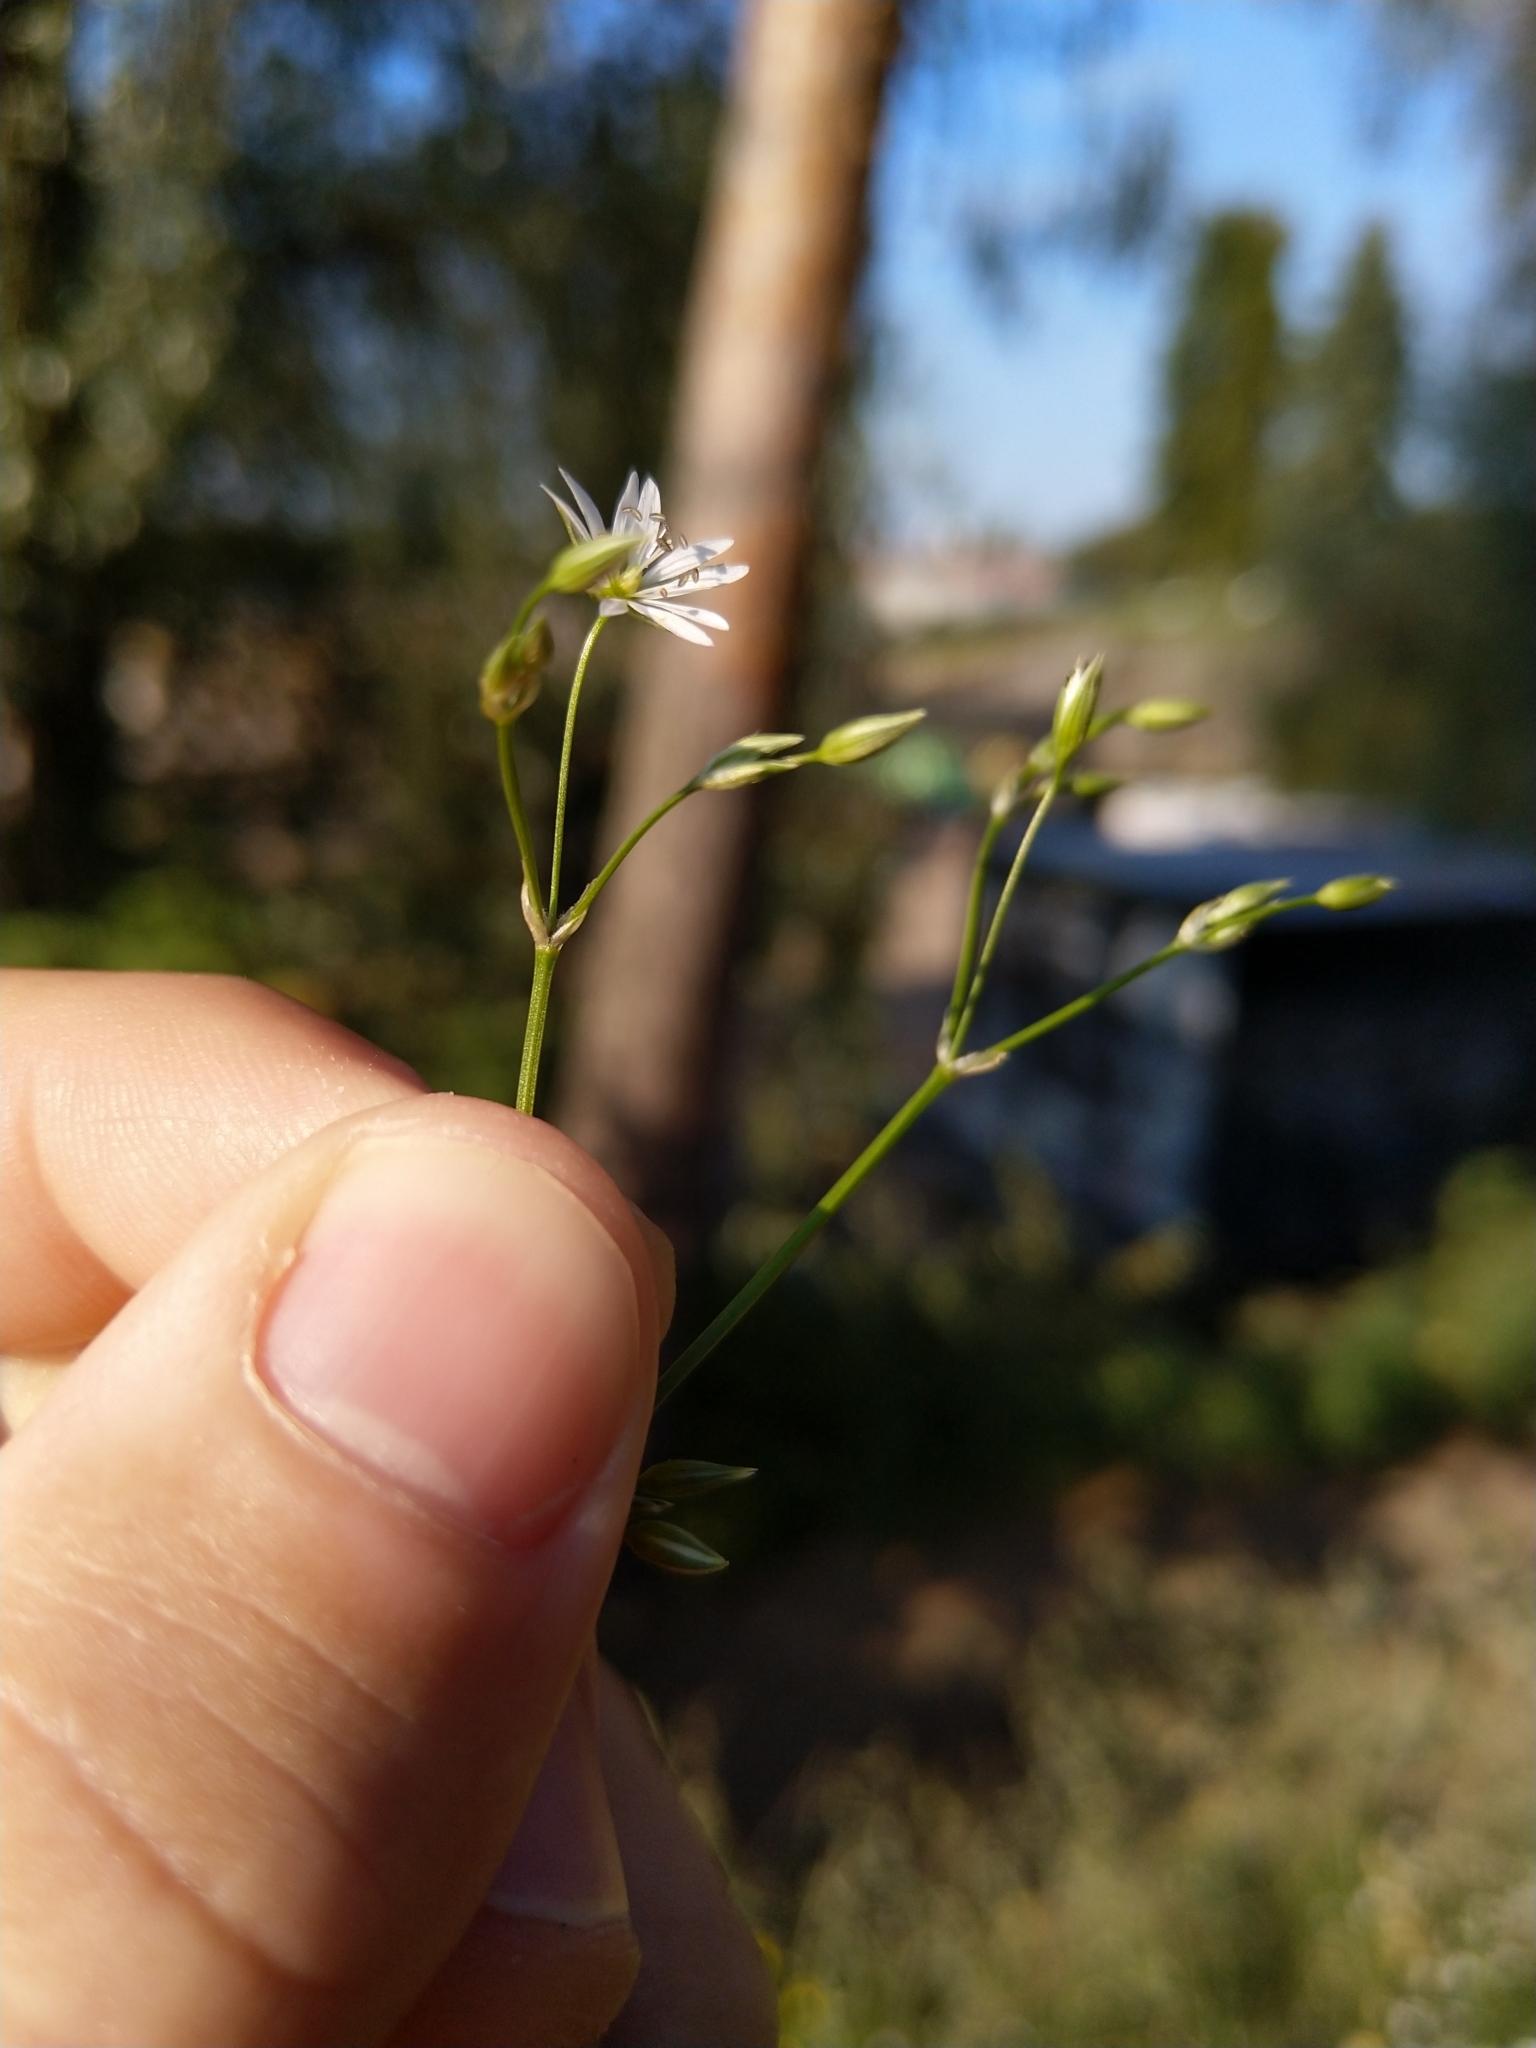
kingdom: Plantae
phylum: Tracheophyta
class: Magnoliopsida
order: Caryophyllales
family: Caryophyllaceae
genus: Stellaria
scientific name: Stellaria graminea
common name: Grass-like starwort
